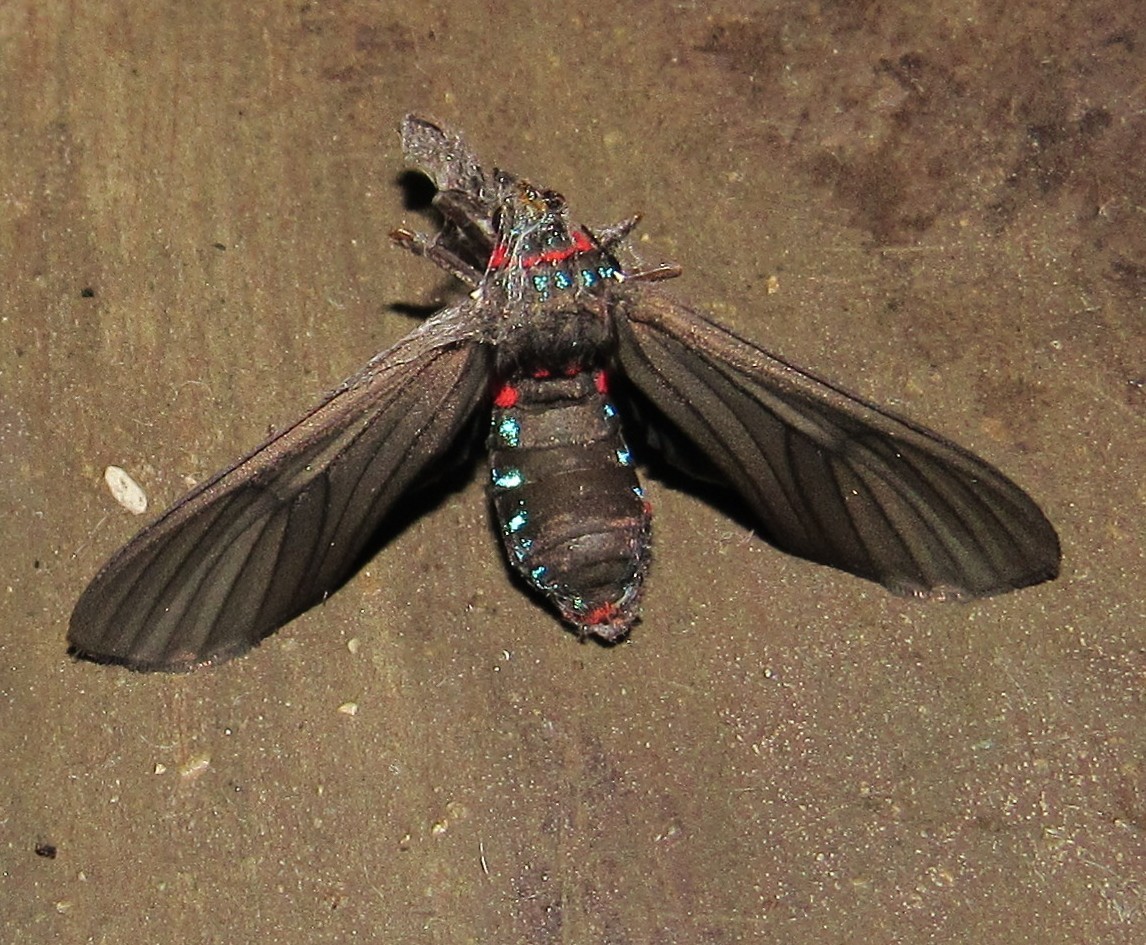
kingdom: Animalia
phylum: Arthropoda
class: Insecta
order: Lepidoptera
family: Erebidae
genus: Saurita
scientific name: Saurita cassandra
